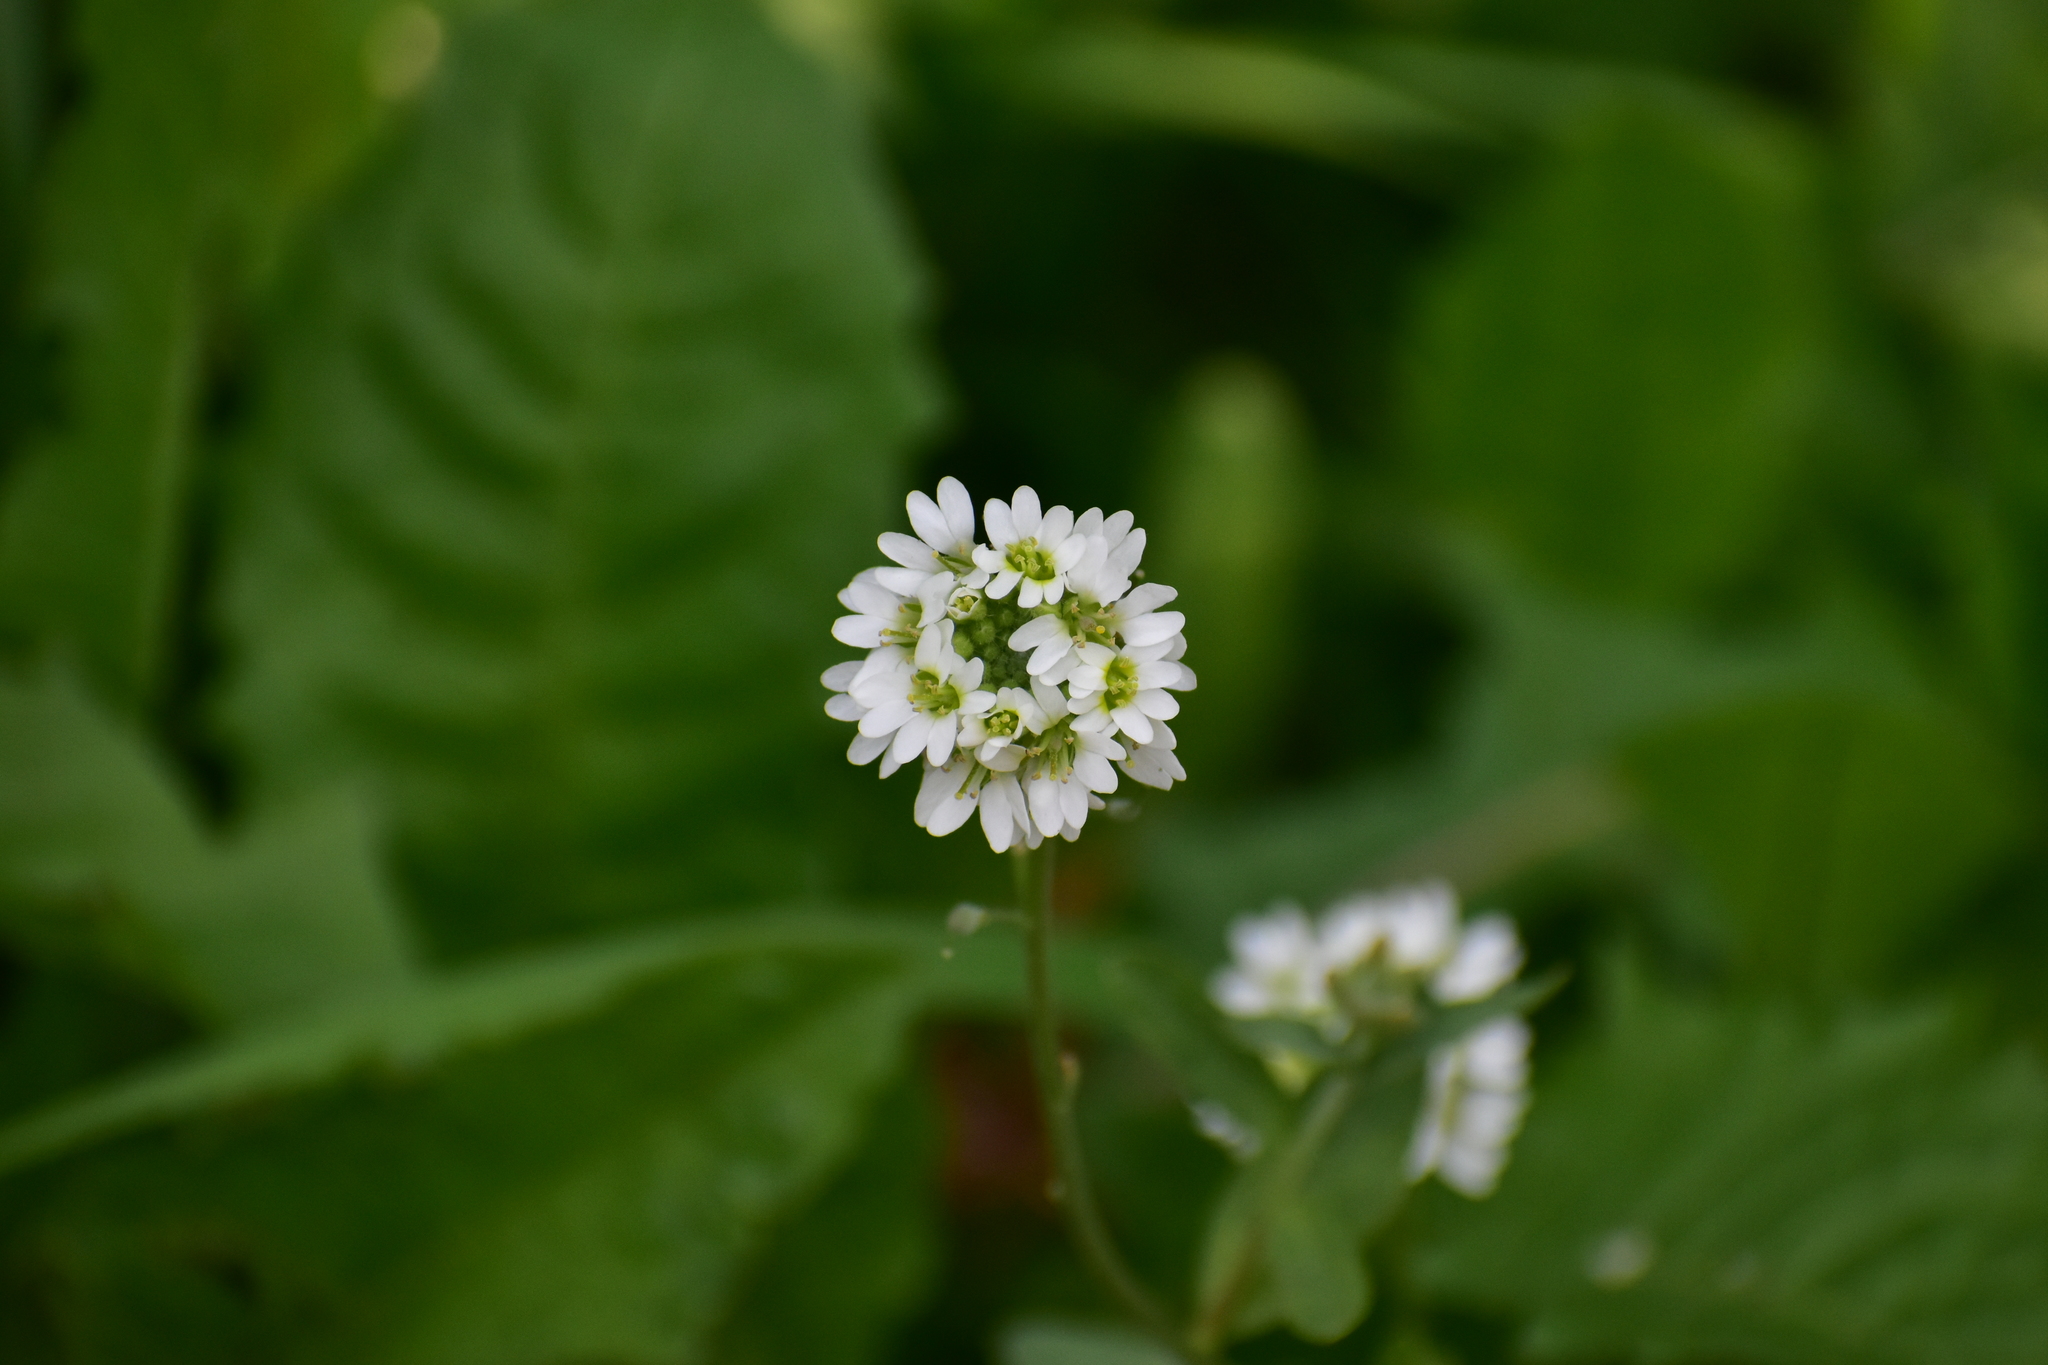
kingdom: Plantae
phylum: Tracheophyta
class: Magnoliopsida
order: Brassicales
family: Brassicaceae
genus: Berteroa
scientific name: Berteroa incana
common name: Hoary alison
